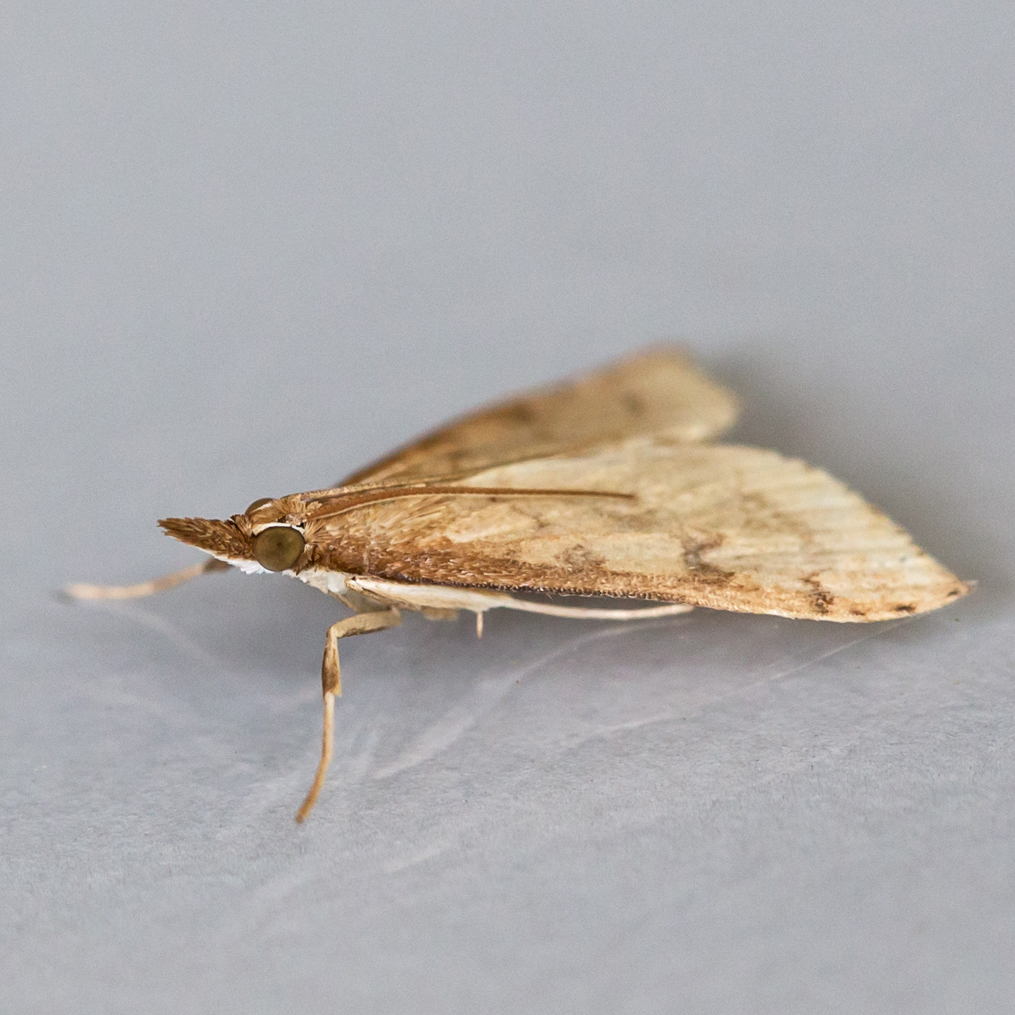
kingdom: Animalia
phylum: Arthropoda
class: Insecta
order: Lepidoptera
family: Crambidae
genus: Udea
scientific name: Udea rubigalis
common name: Celery leaftier moth
